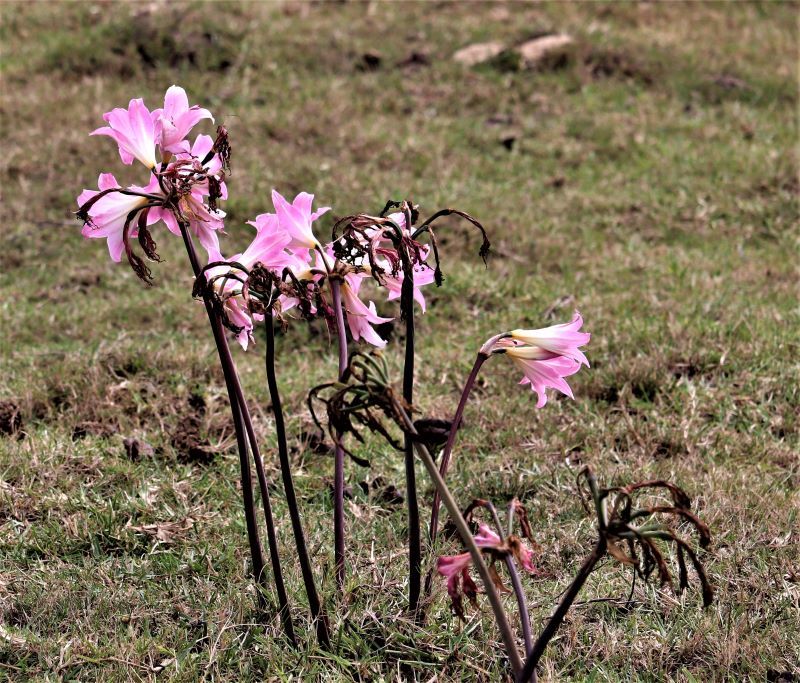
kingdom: Plantae
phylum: Tracheophyta
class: Liliopsida
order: Asparagales
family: Amaryllidaceae
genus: Amaryllis
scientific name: Amaryllis belladonna
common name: Jersey lily
